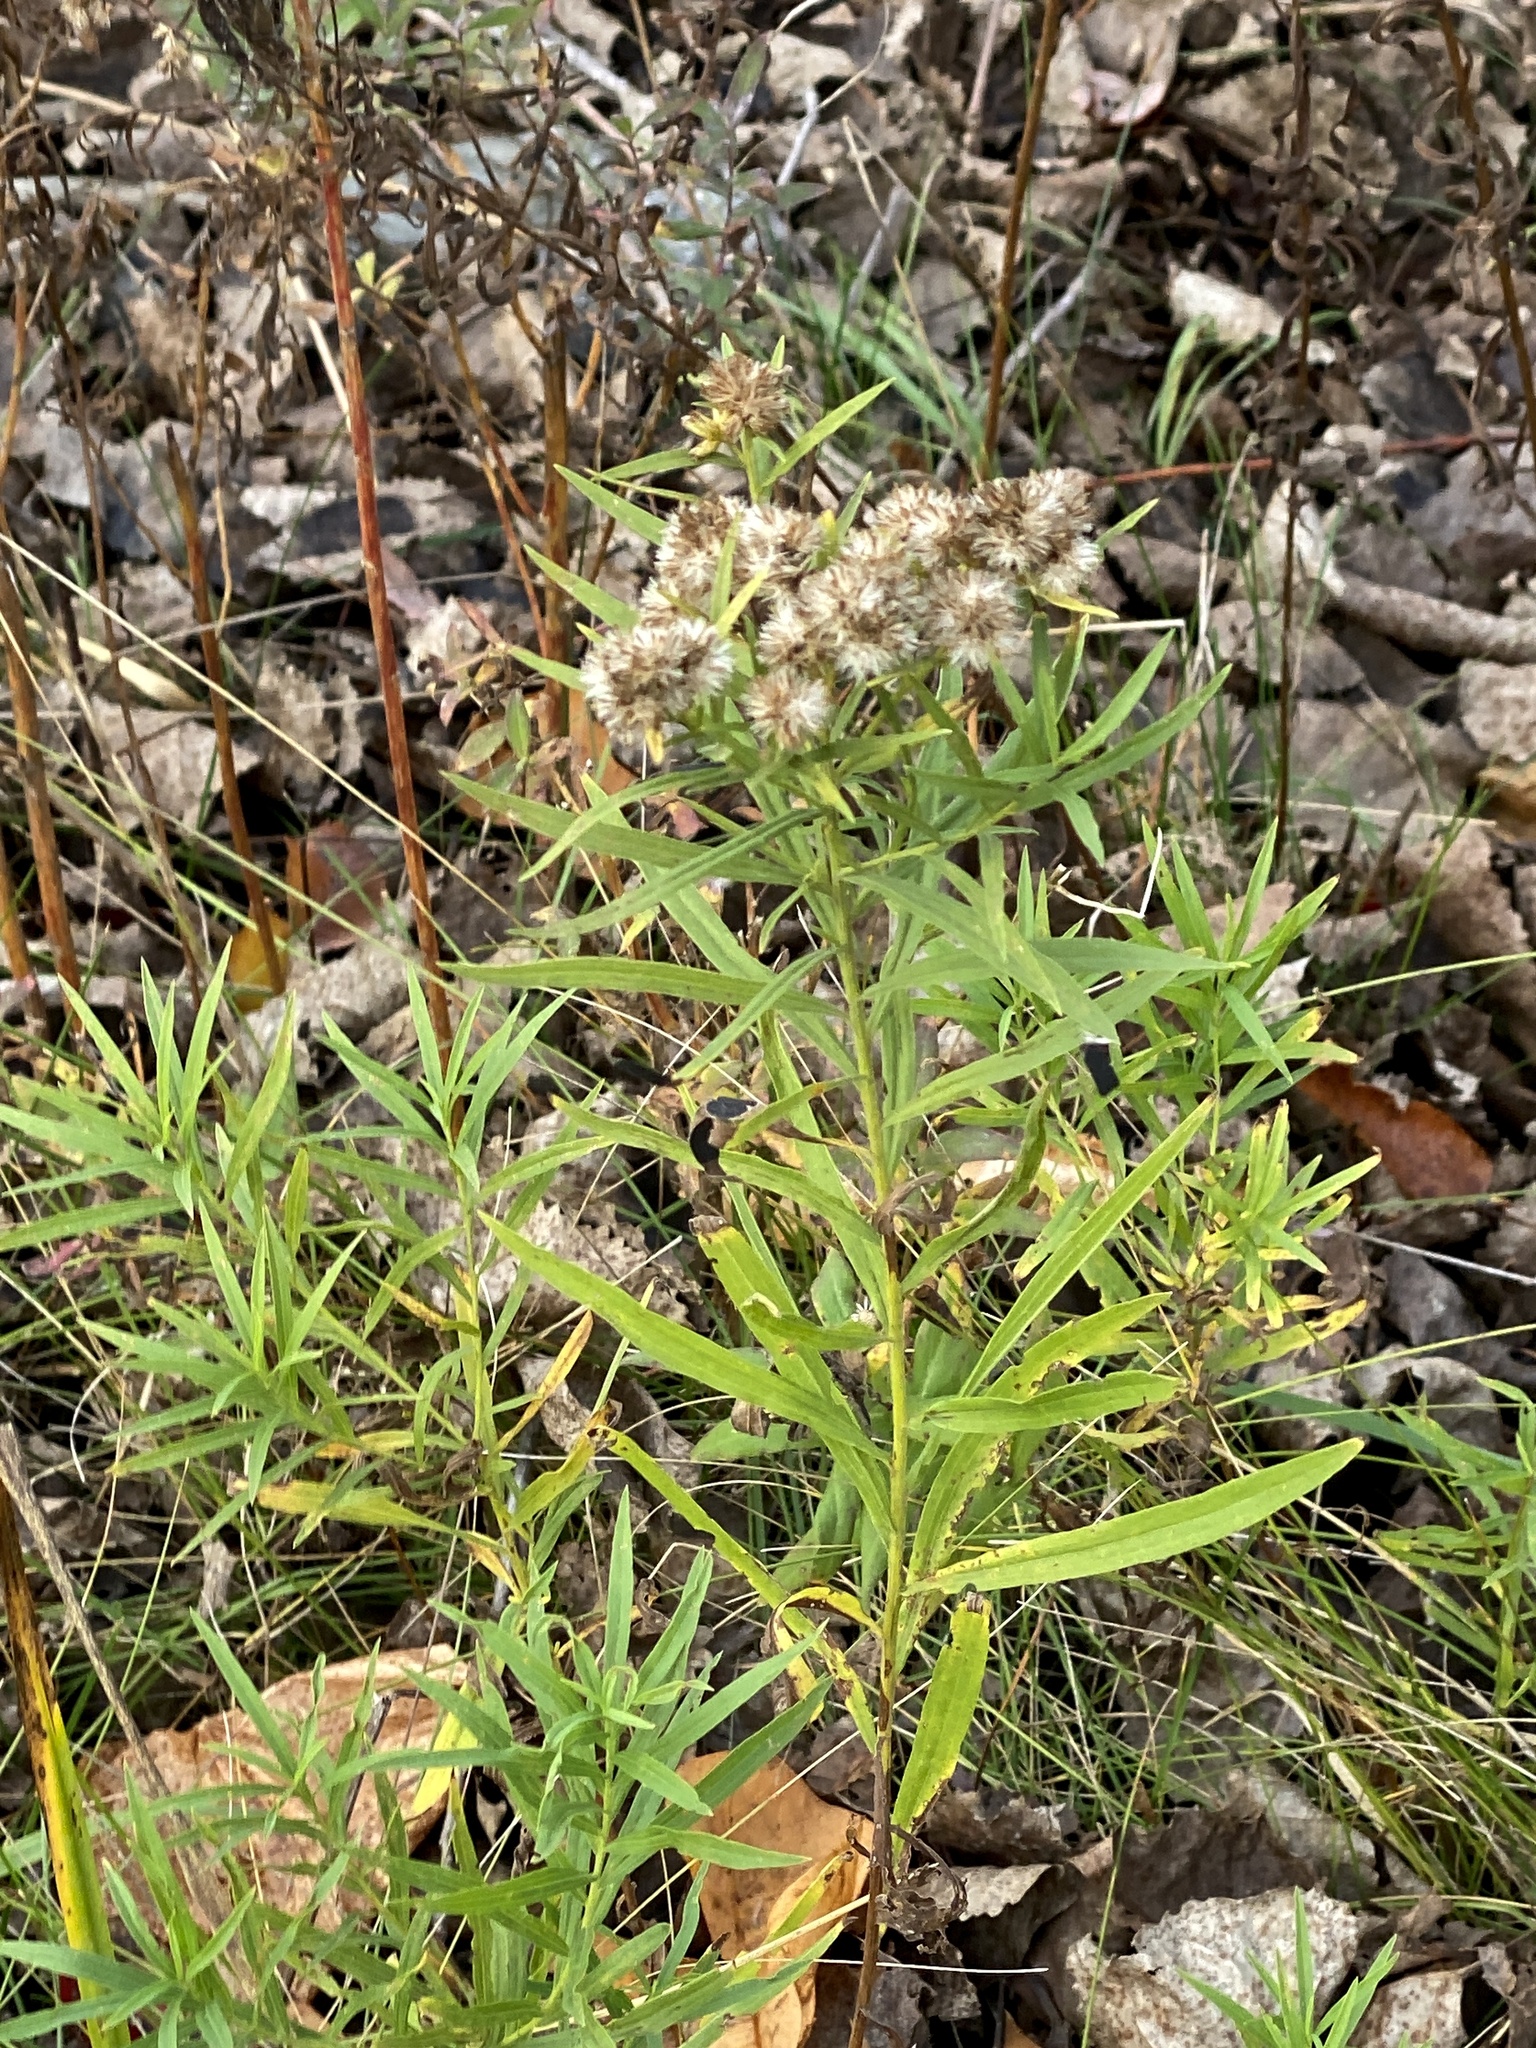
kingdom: Plantae
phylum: Tracheophyta
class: Magnoliopsida
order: Asterales
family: Asteraceae
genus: Euthamia
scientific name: Euthamia graminifolia
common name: Common goldentop
